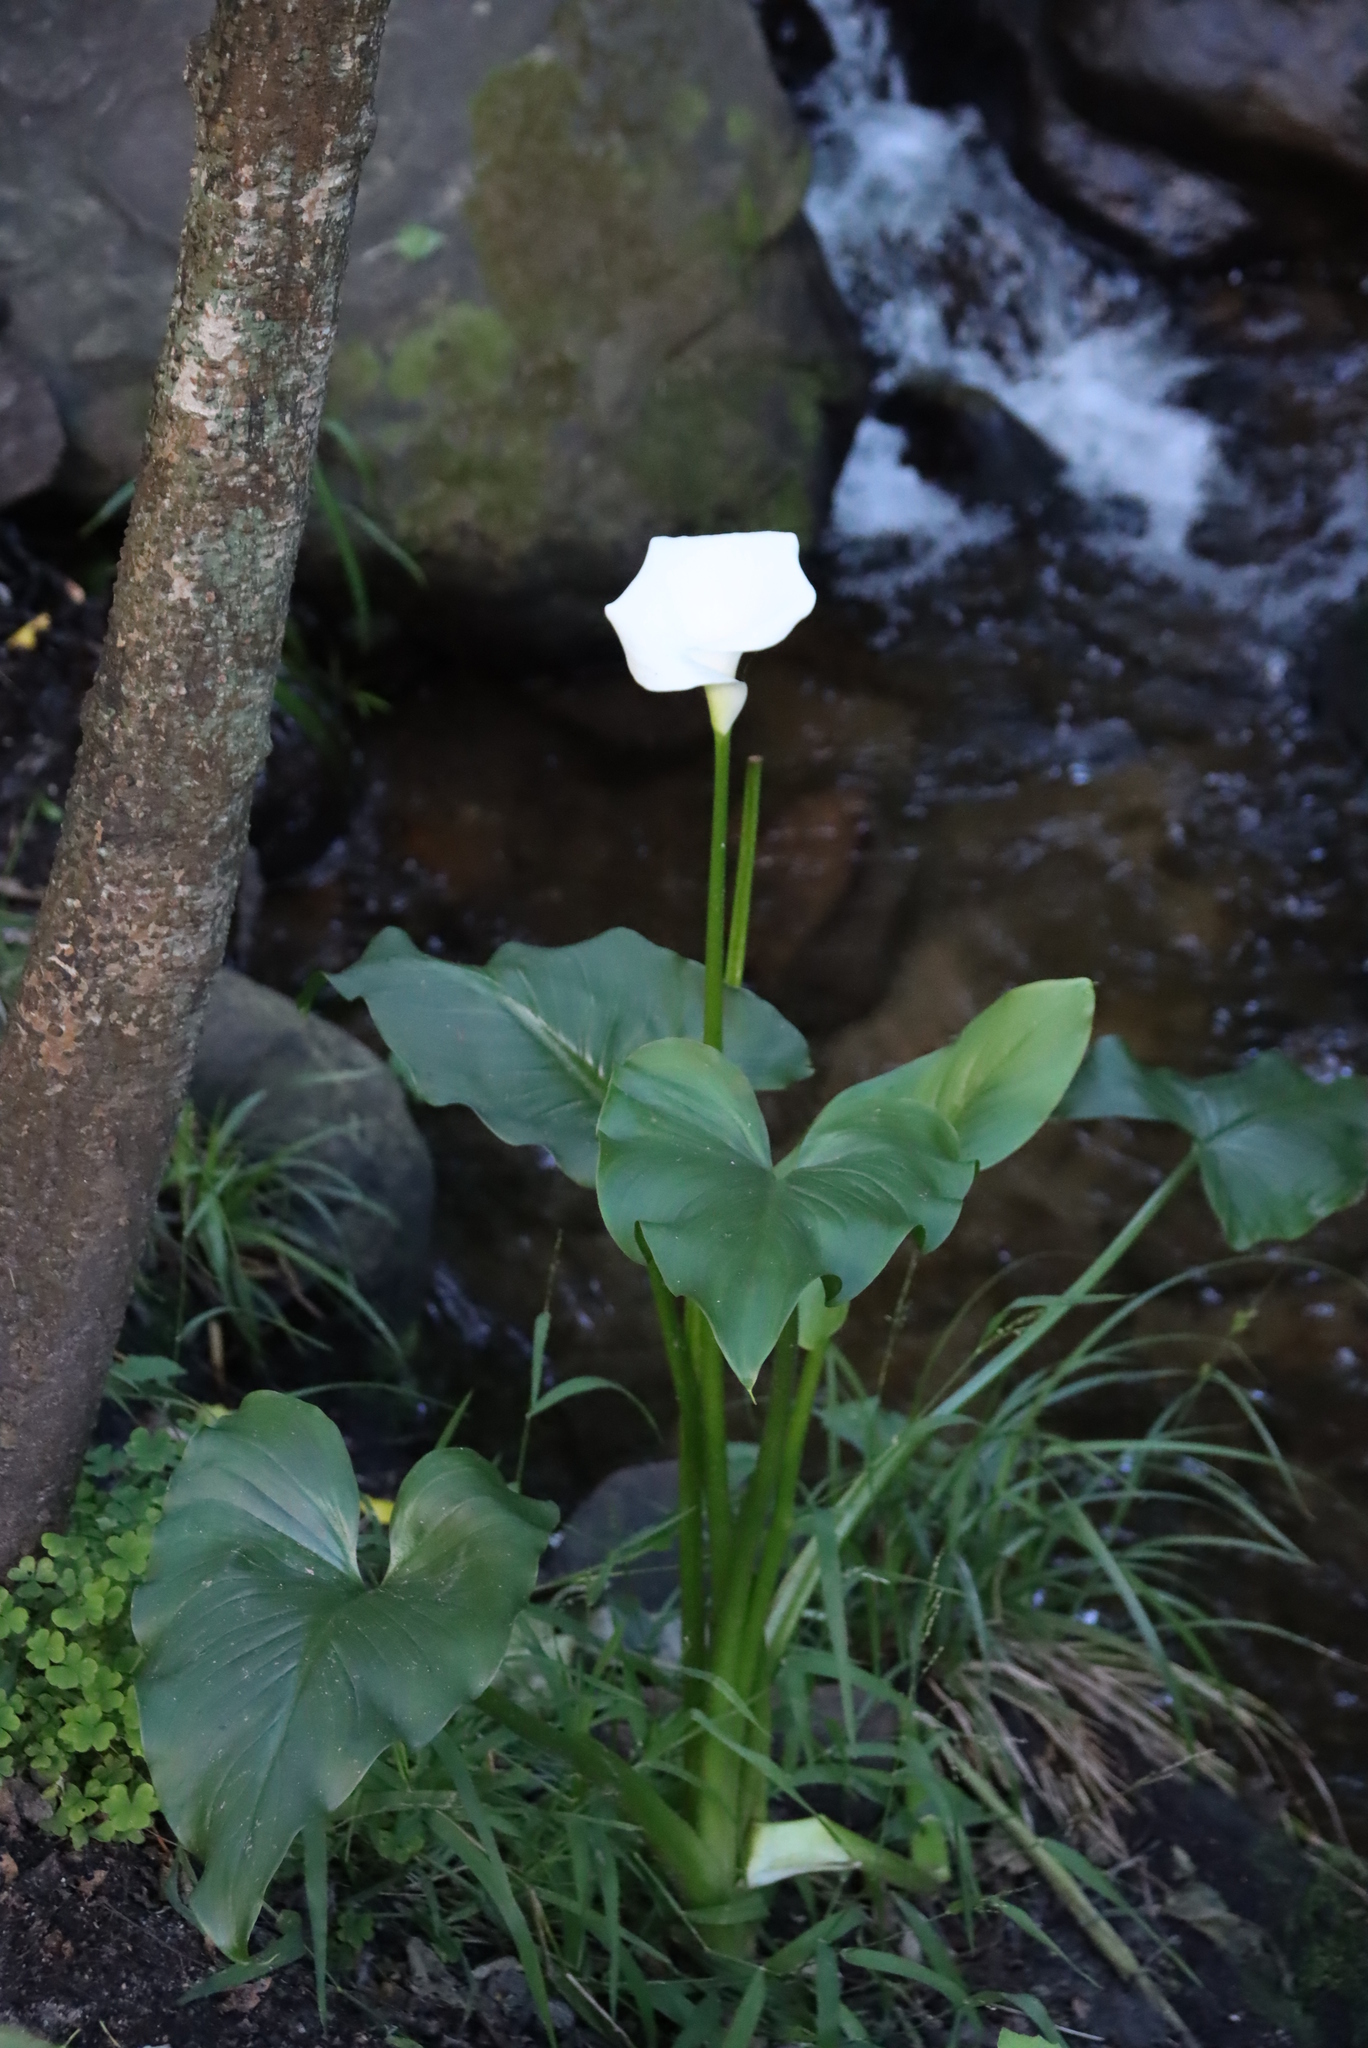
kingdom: Plantae
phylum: Tracheophyta
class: Liliopsida
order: Alismatales
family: Araceae
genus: Zantedeschia
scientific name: Zantedeschia aethiopica
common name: Altar-lily
